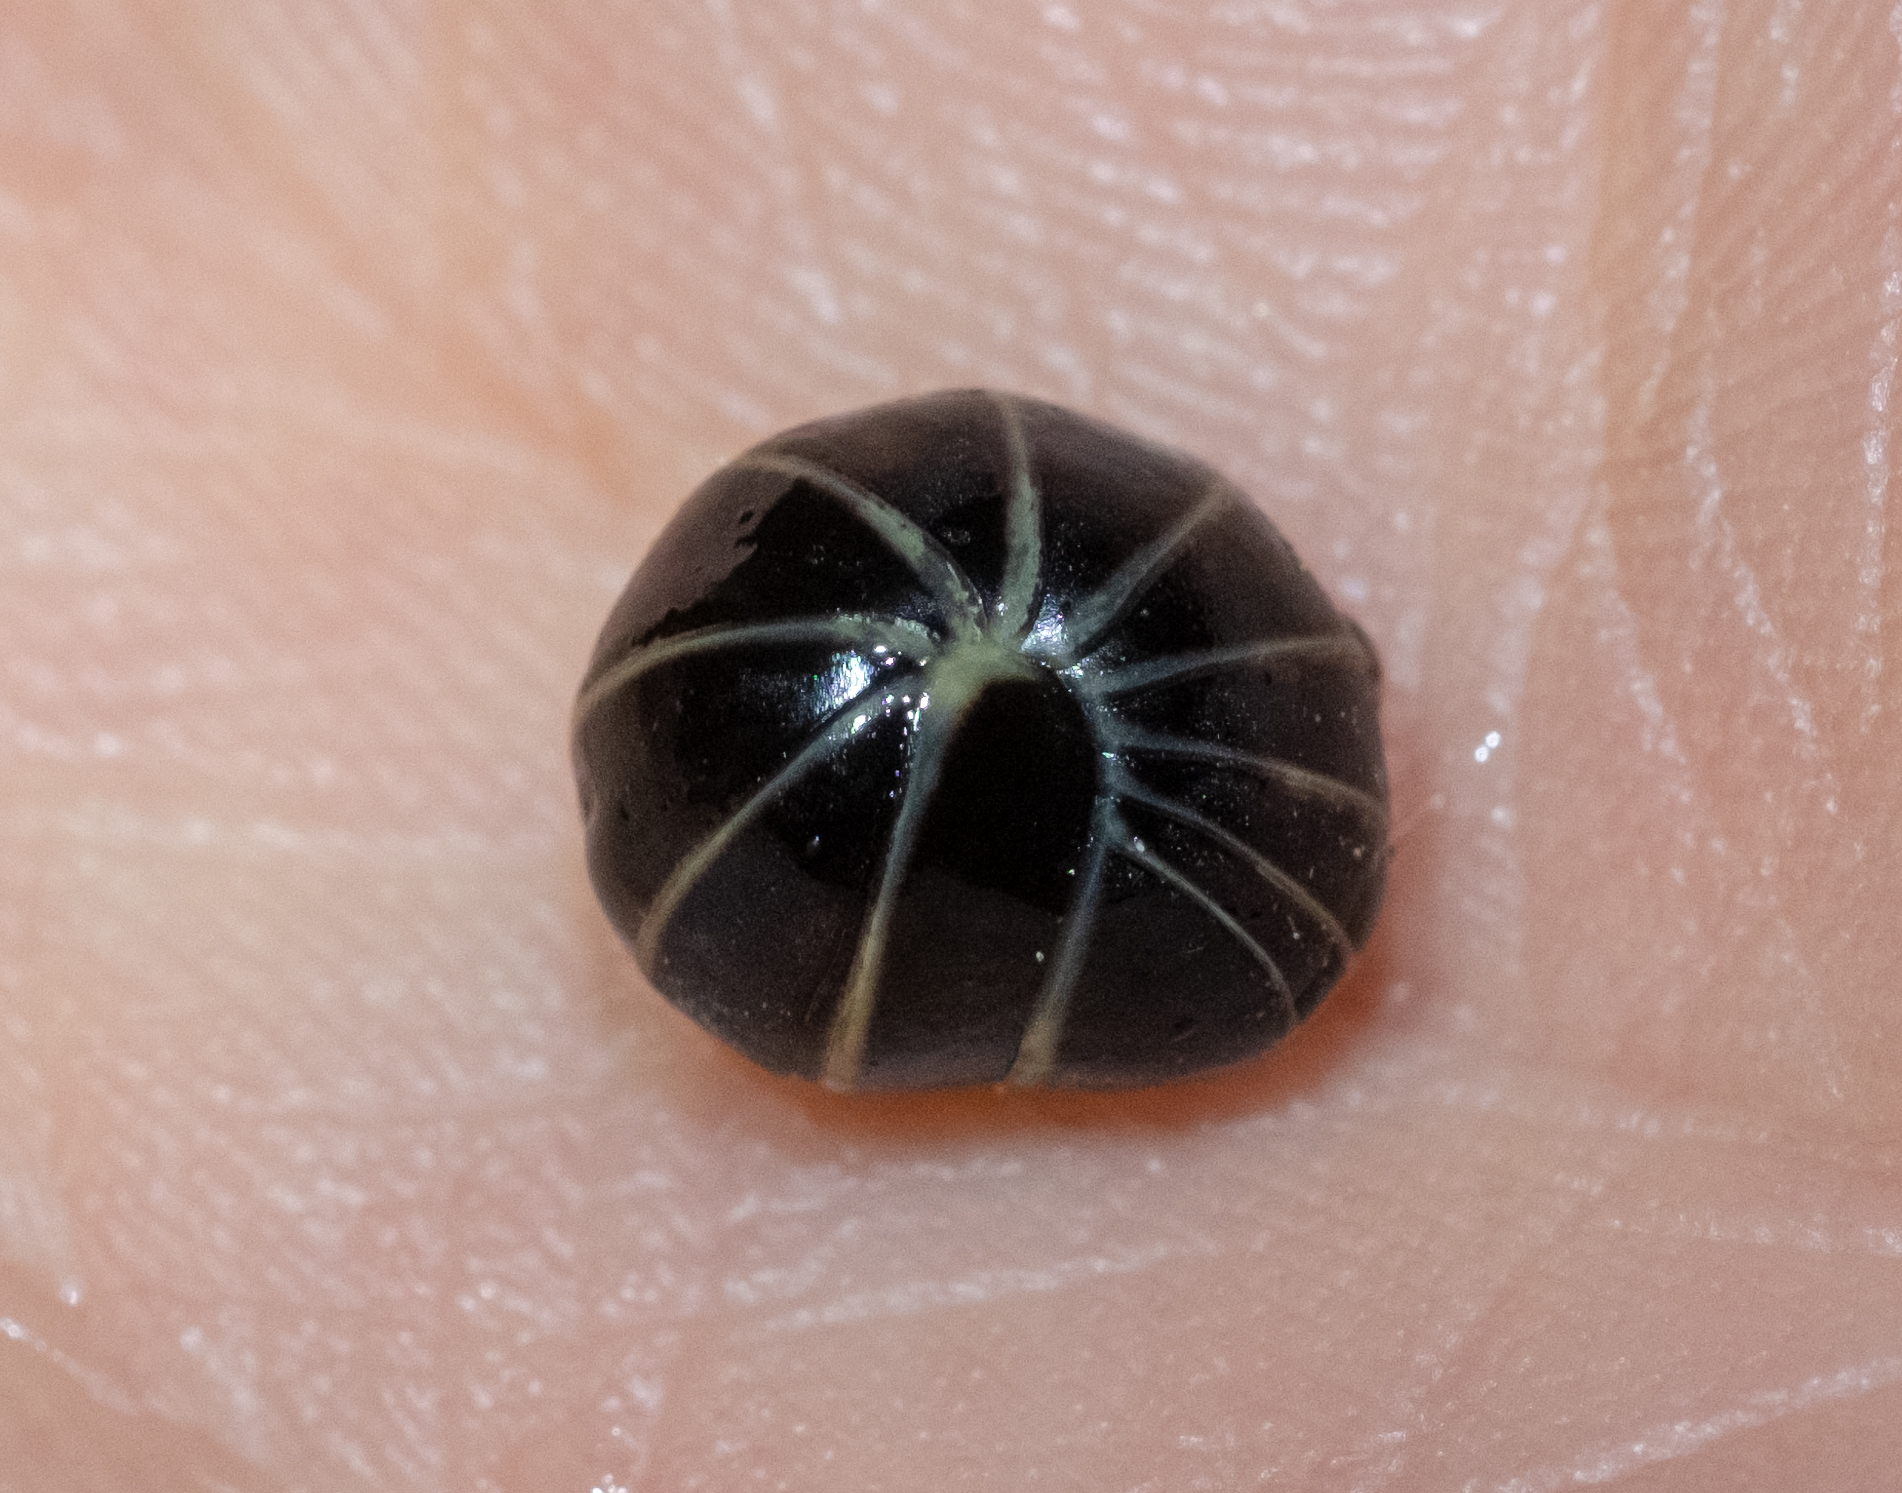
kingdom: Animalia
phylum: Arthropoda
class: Diplopoda
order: Glomerida
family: Glomeridae
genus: Glomeris
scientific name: Glomeris marginata
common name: Bordered pill millipede
